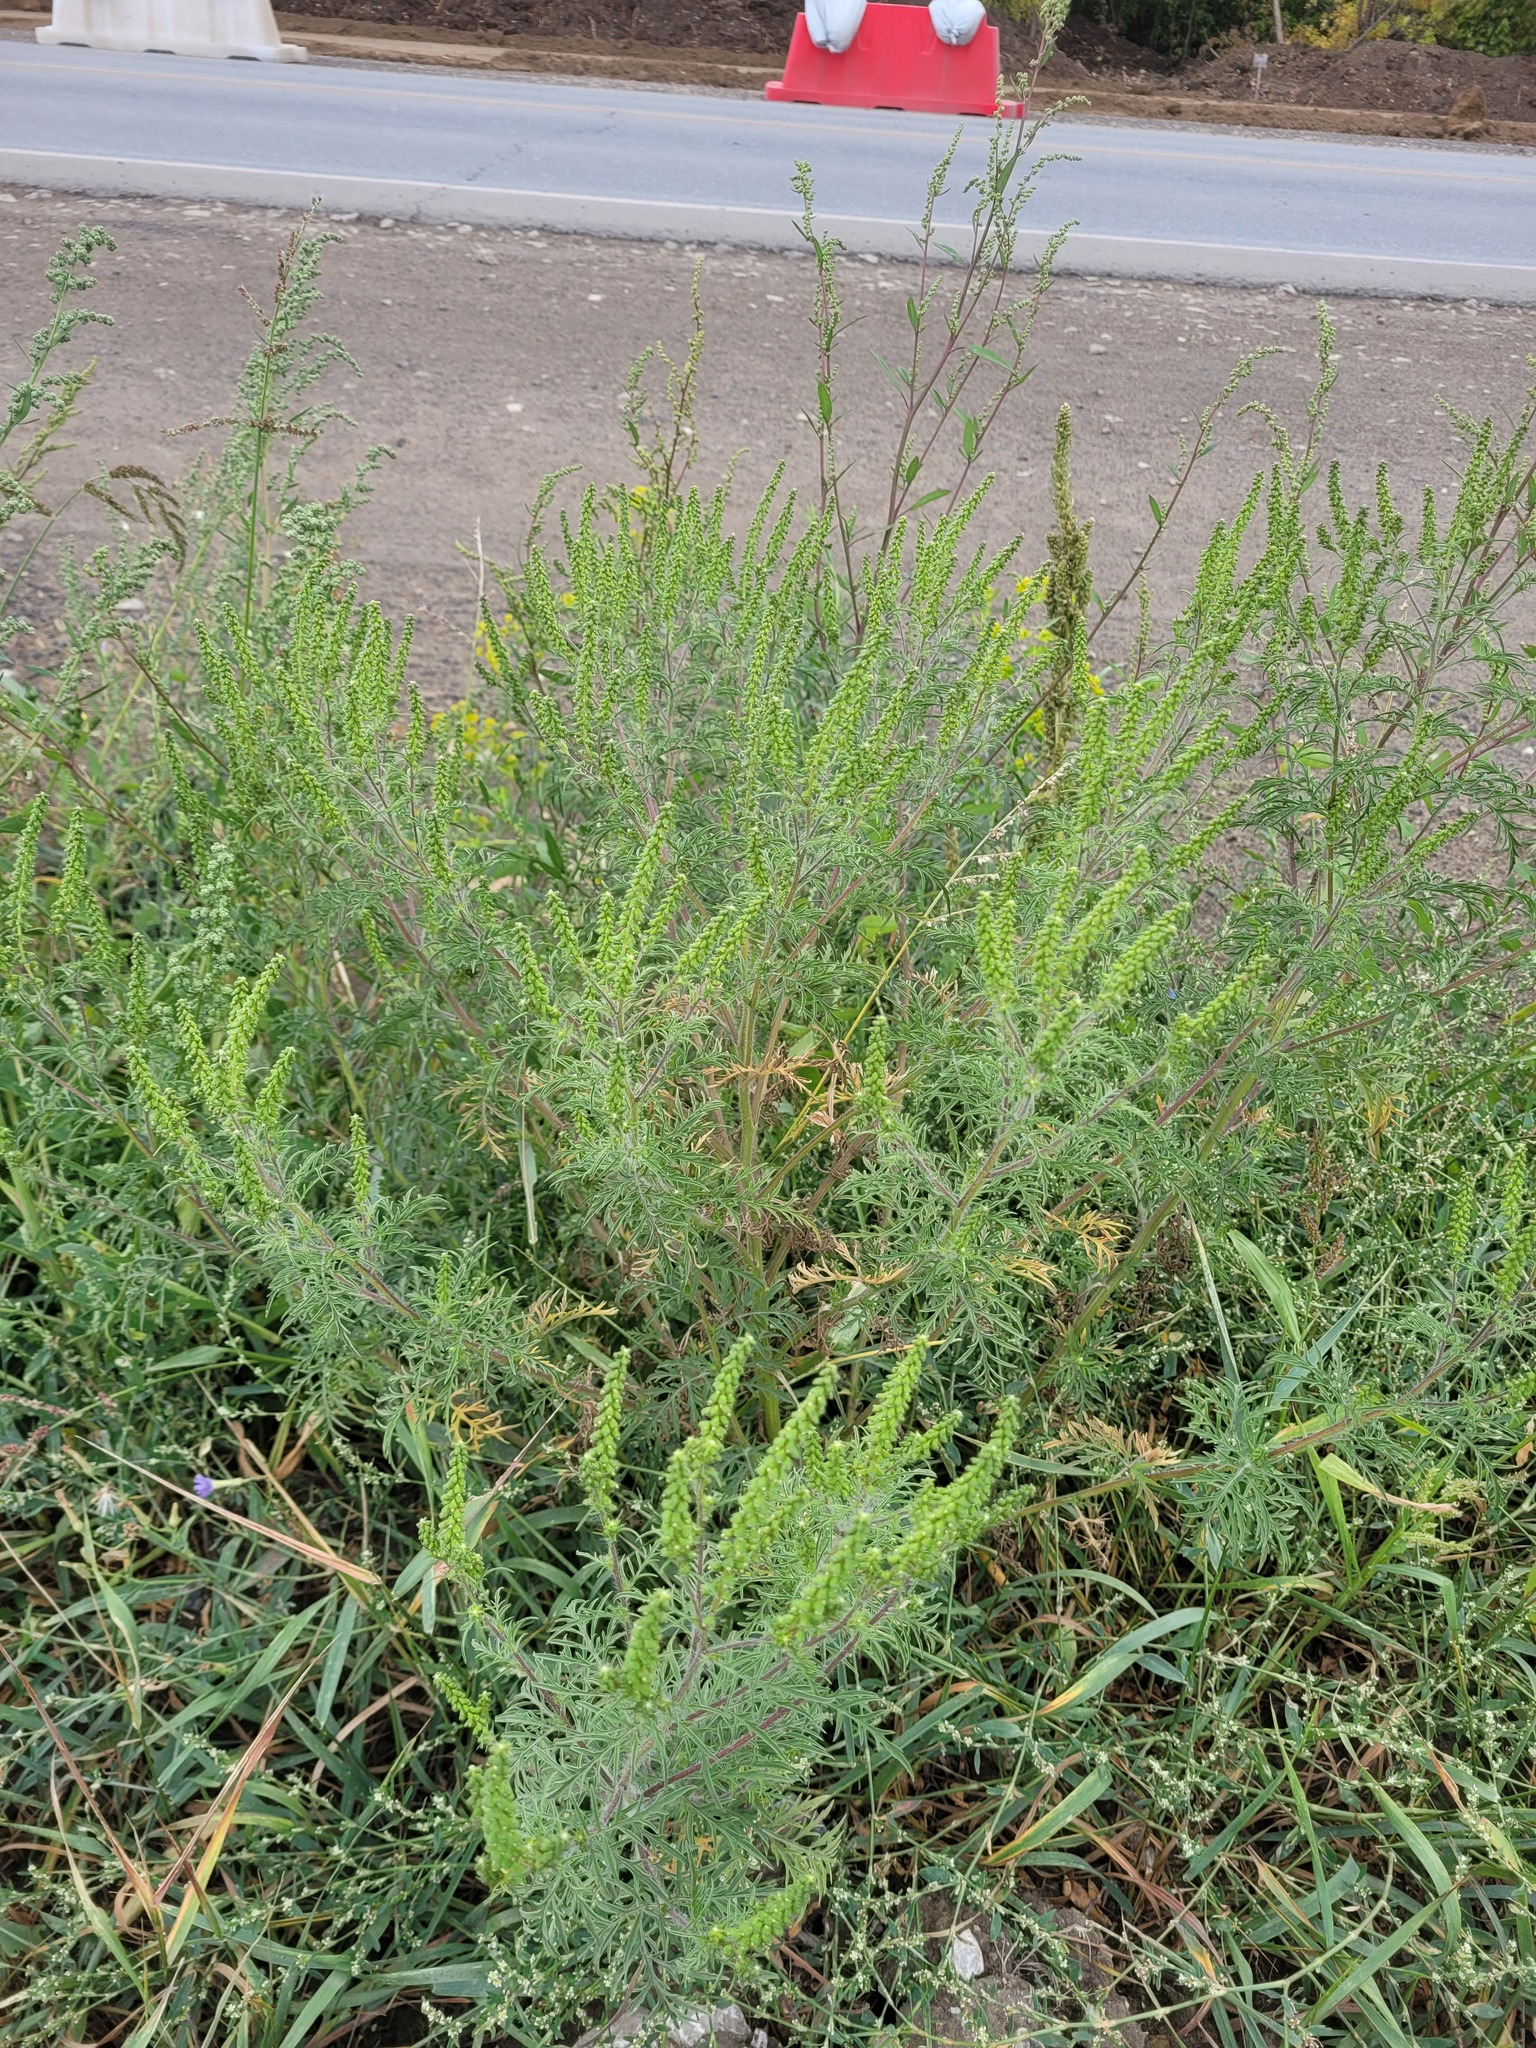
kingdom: Plantae
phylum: Tracheophyta
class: Magnoliopsida
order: Asterales
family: Asteraceae
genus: Ambrosia
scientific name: Ambrosia artemisiifolia
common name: Annual ragweed
